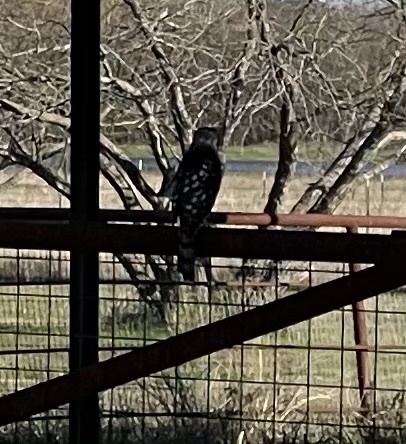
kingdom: Animalia
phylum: Chordata
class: Aves
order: Accipitriformes
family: Accipitridae
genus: Accipiter
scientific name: Accipiter cooperii
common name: Cooper's hawk
